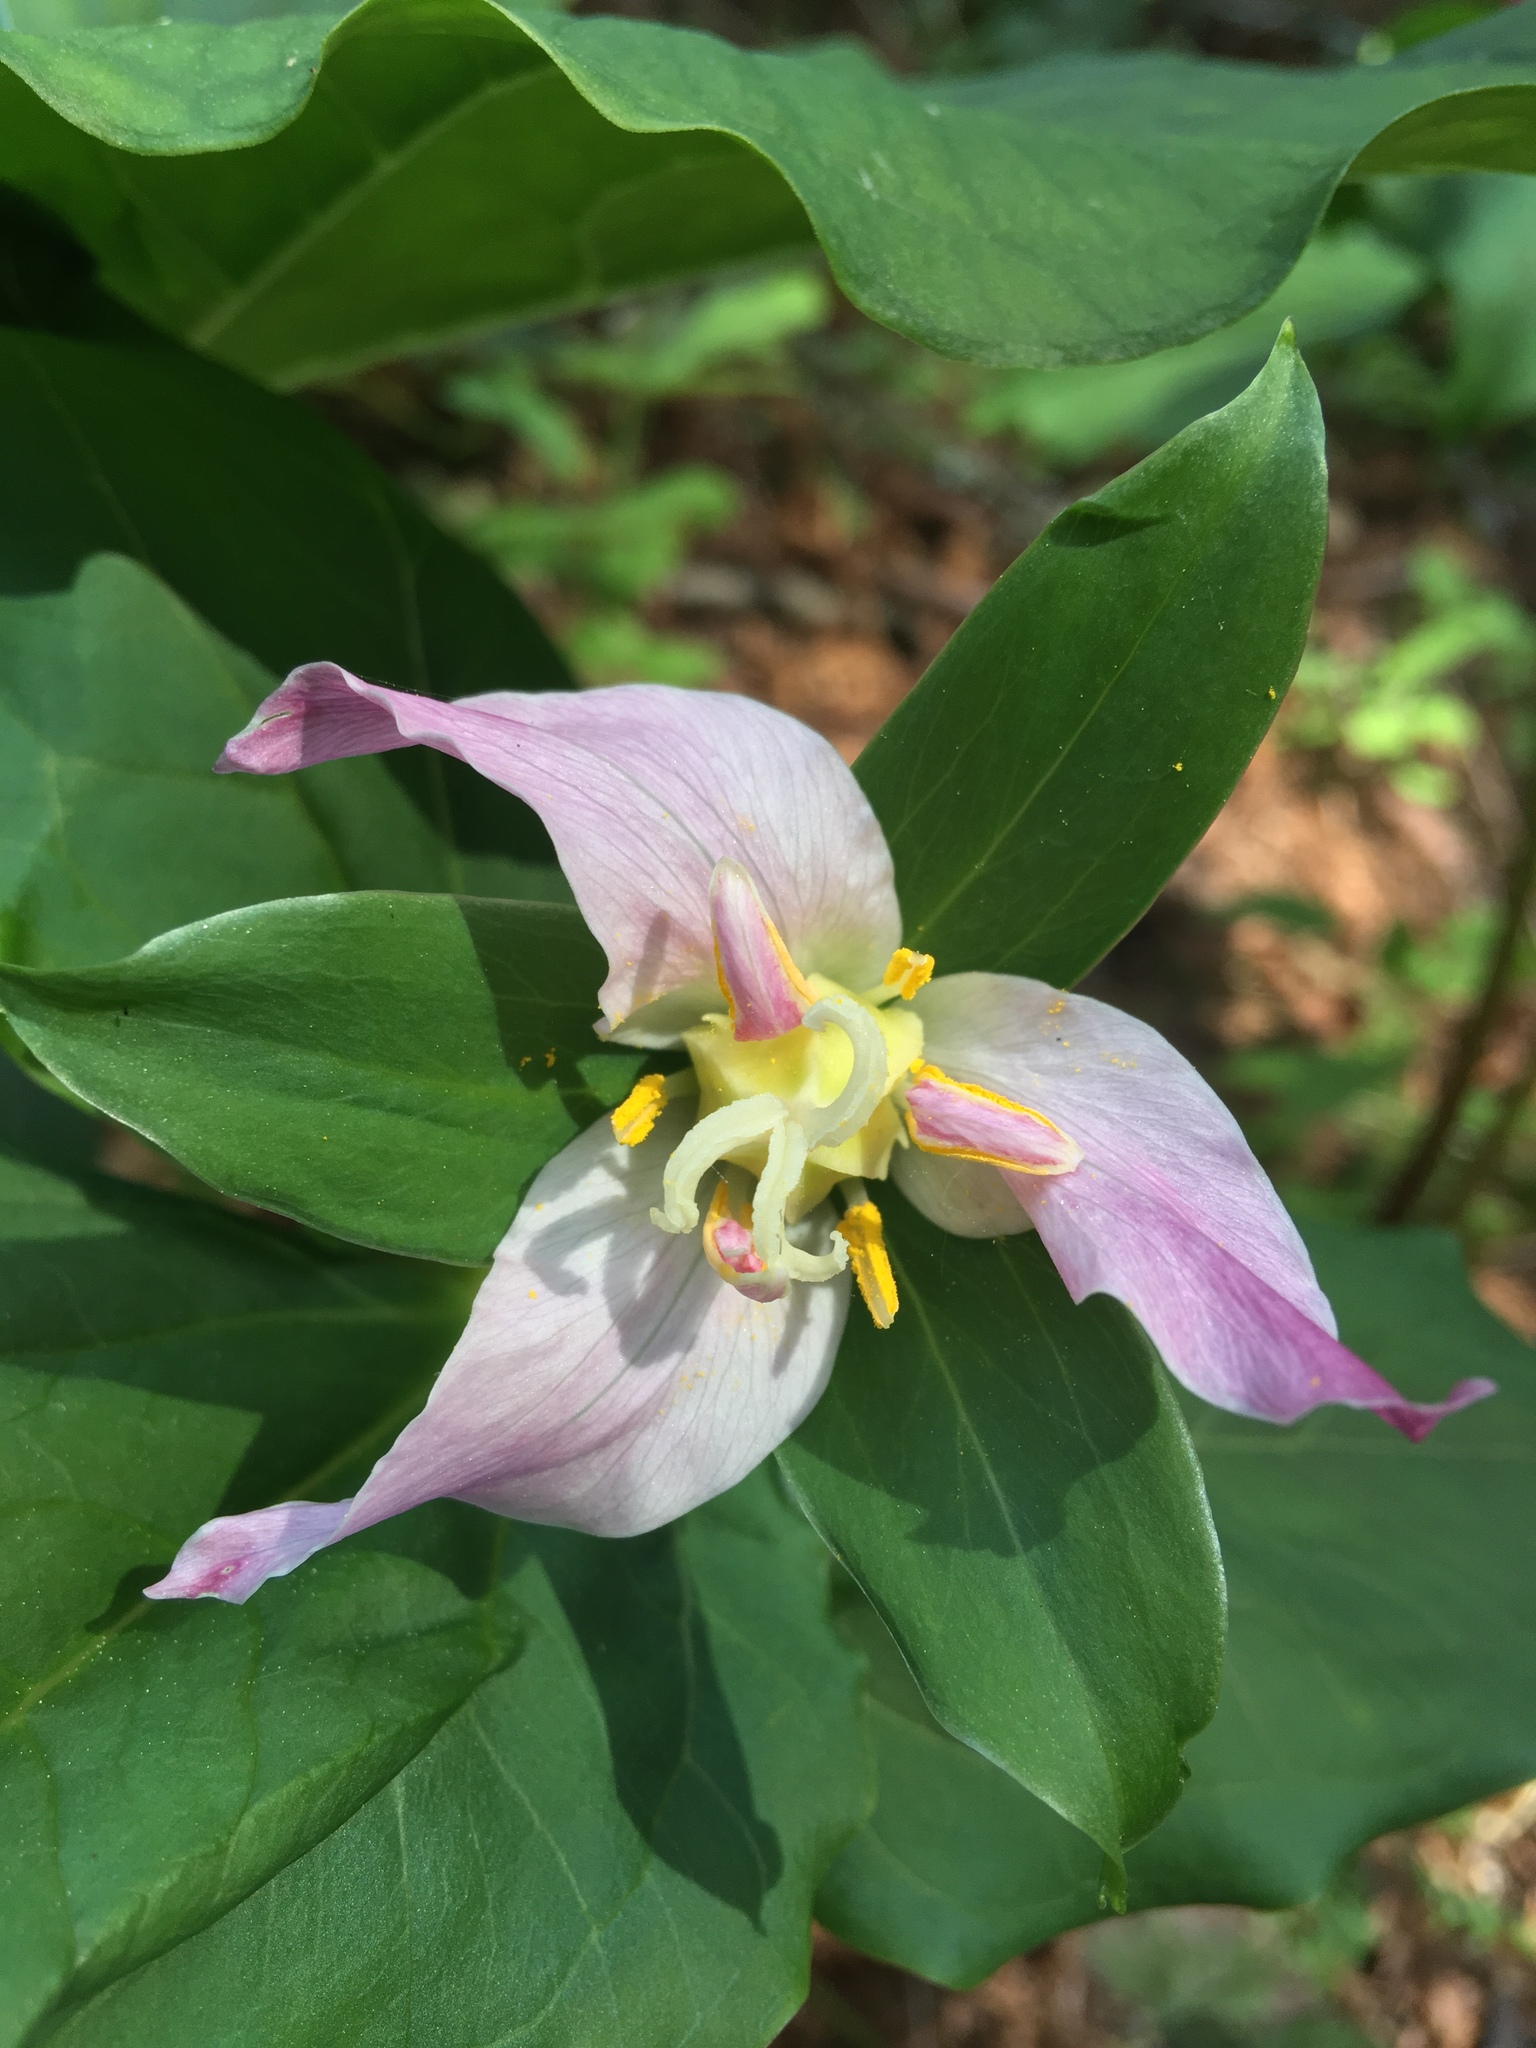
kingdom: Plantae
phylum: Tracheophyta
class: Liliopsida
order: Liliales
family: Melanthiaceae
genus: Trillium
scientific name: Trillium ovatum
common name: Pacific trillium
